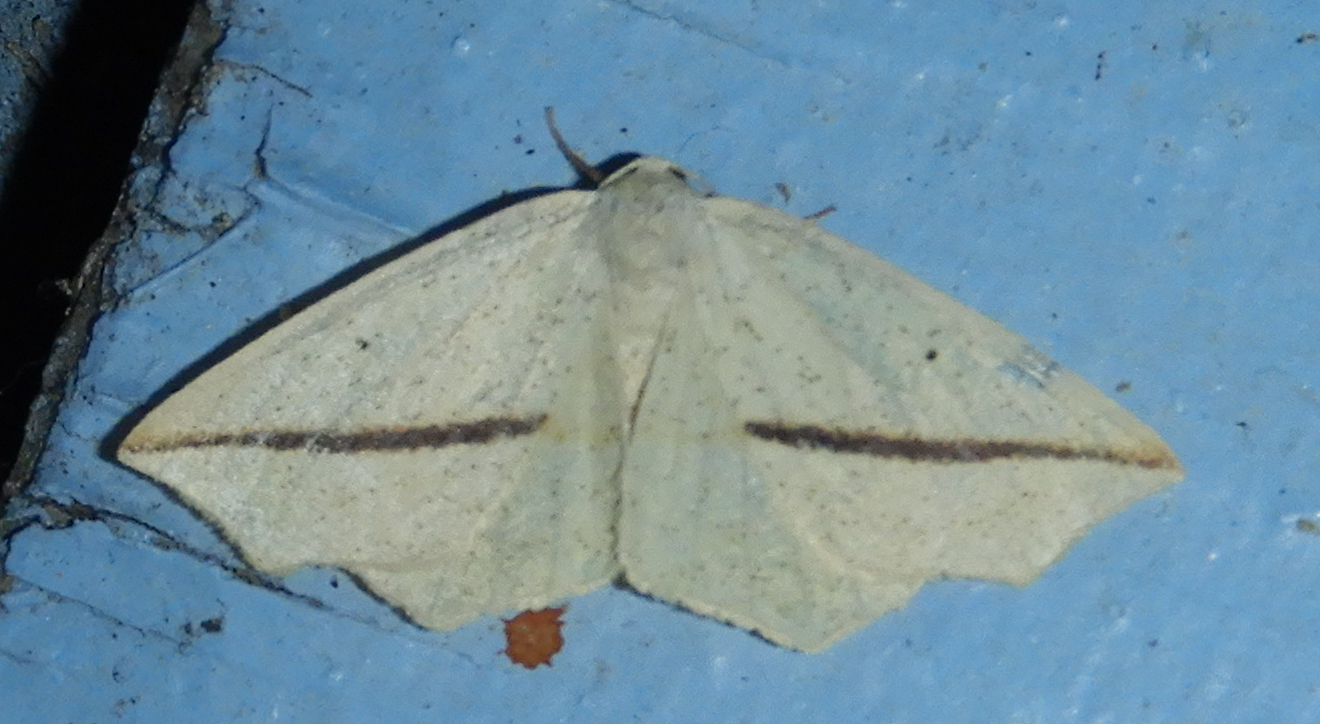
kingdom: Animalia
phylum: Arthropoda
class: Insecta
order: Lepidoptera
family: Geometridae
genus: Tetracis
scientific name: Tetracis crocallata
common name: Yellow slant-line
